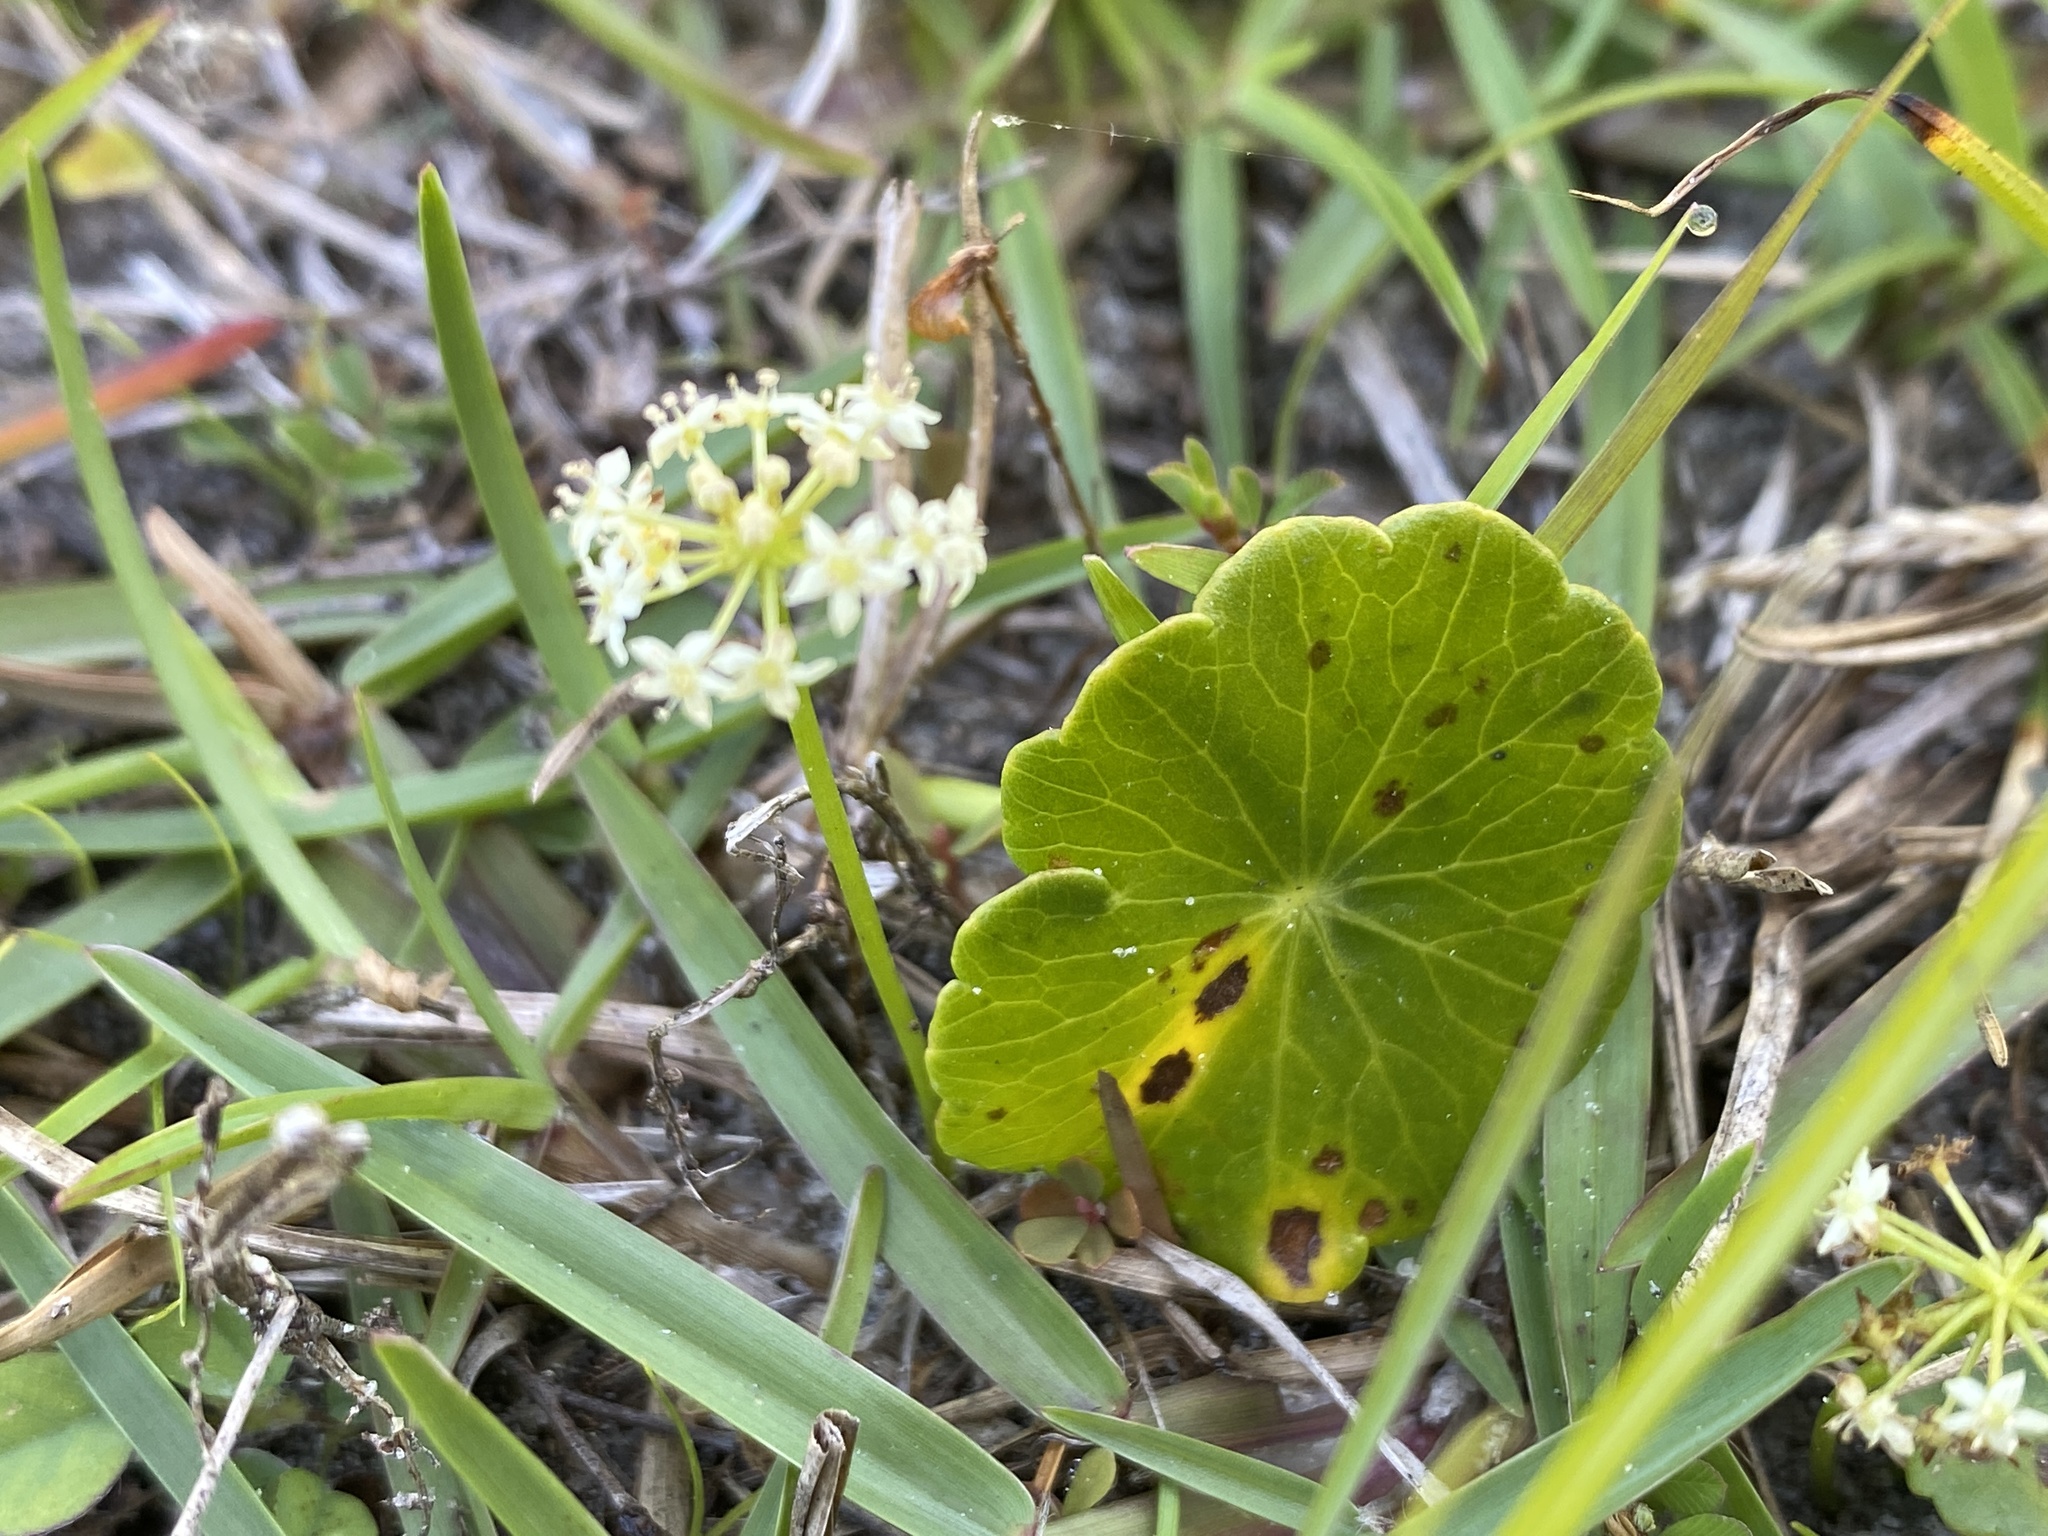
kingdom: Plantae
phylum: Tracheophyta
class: Magnoliopsida
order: Apiales
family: Araliaceae
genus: Hydrocotyle
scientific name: Hydrocotyle umbellata
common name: Water pennywort
